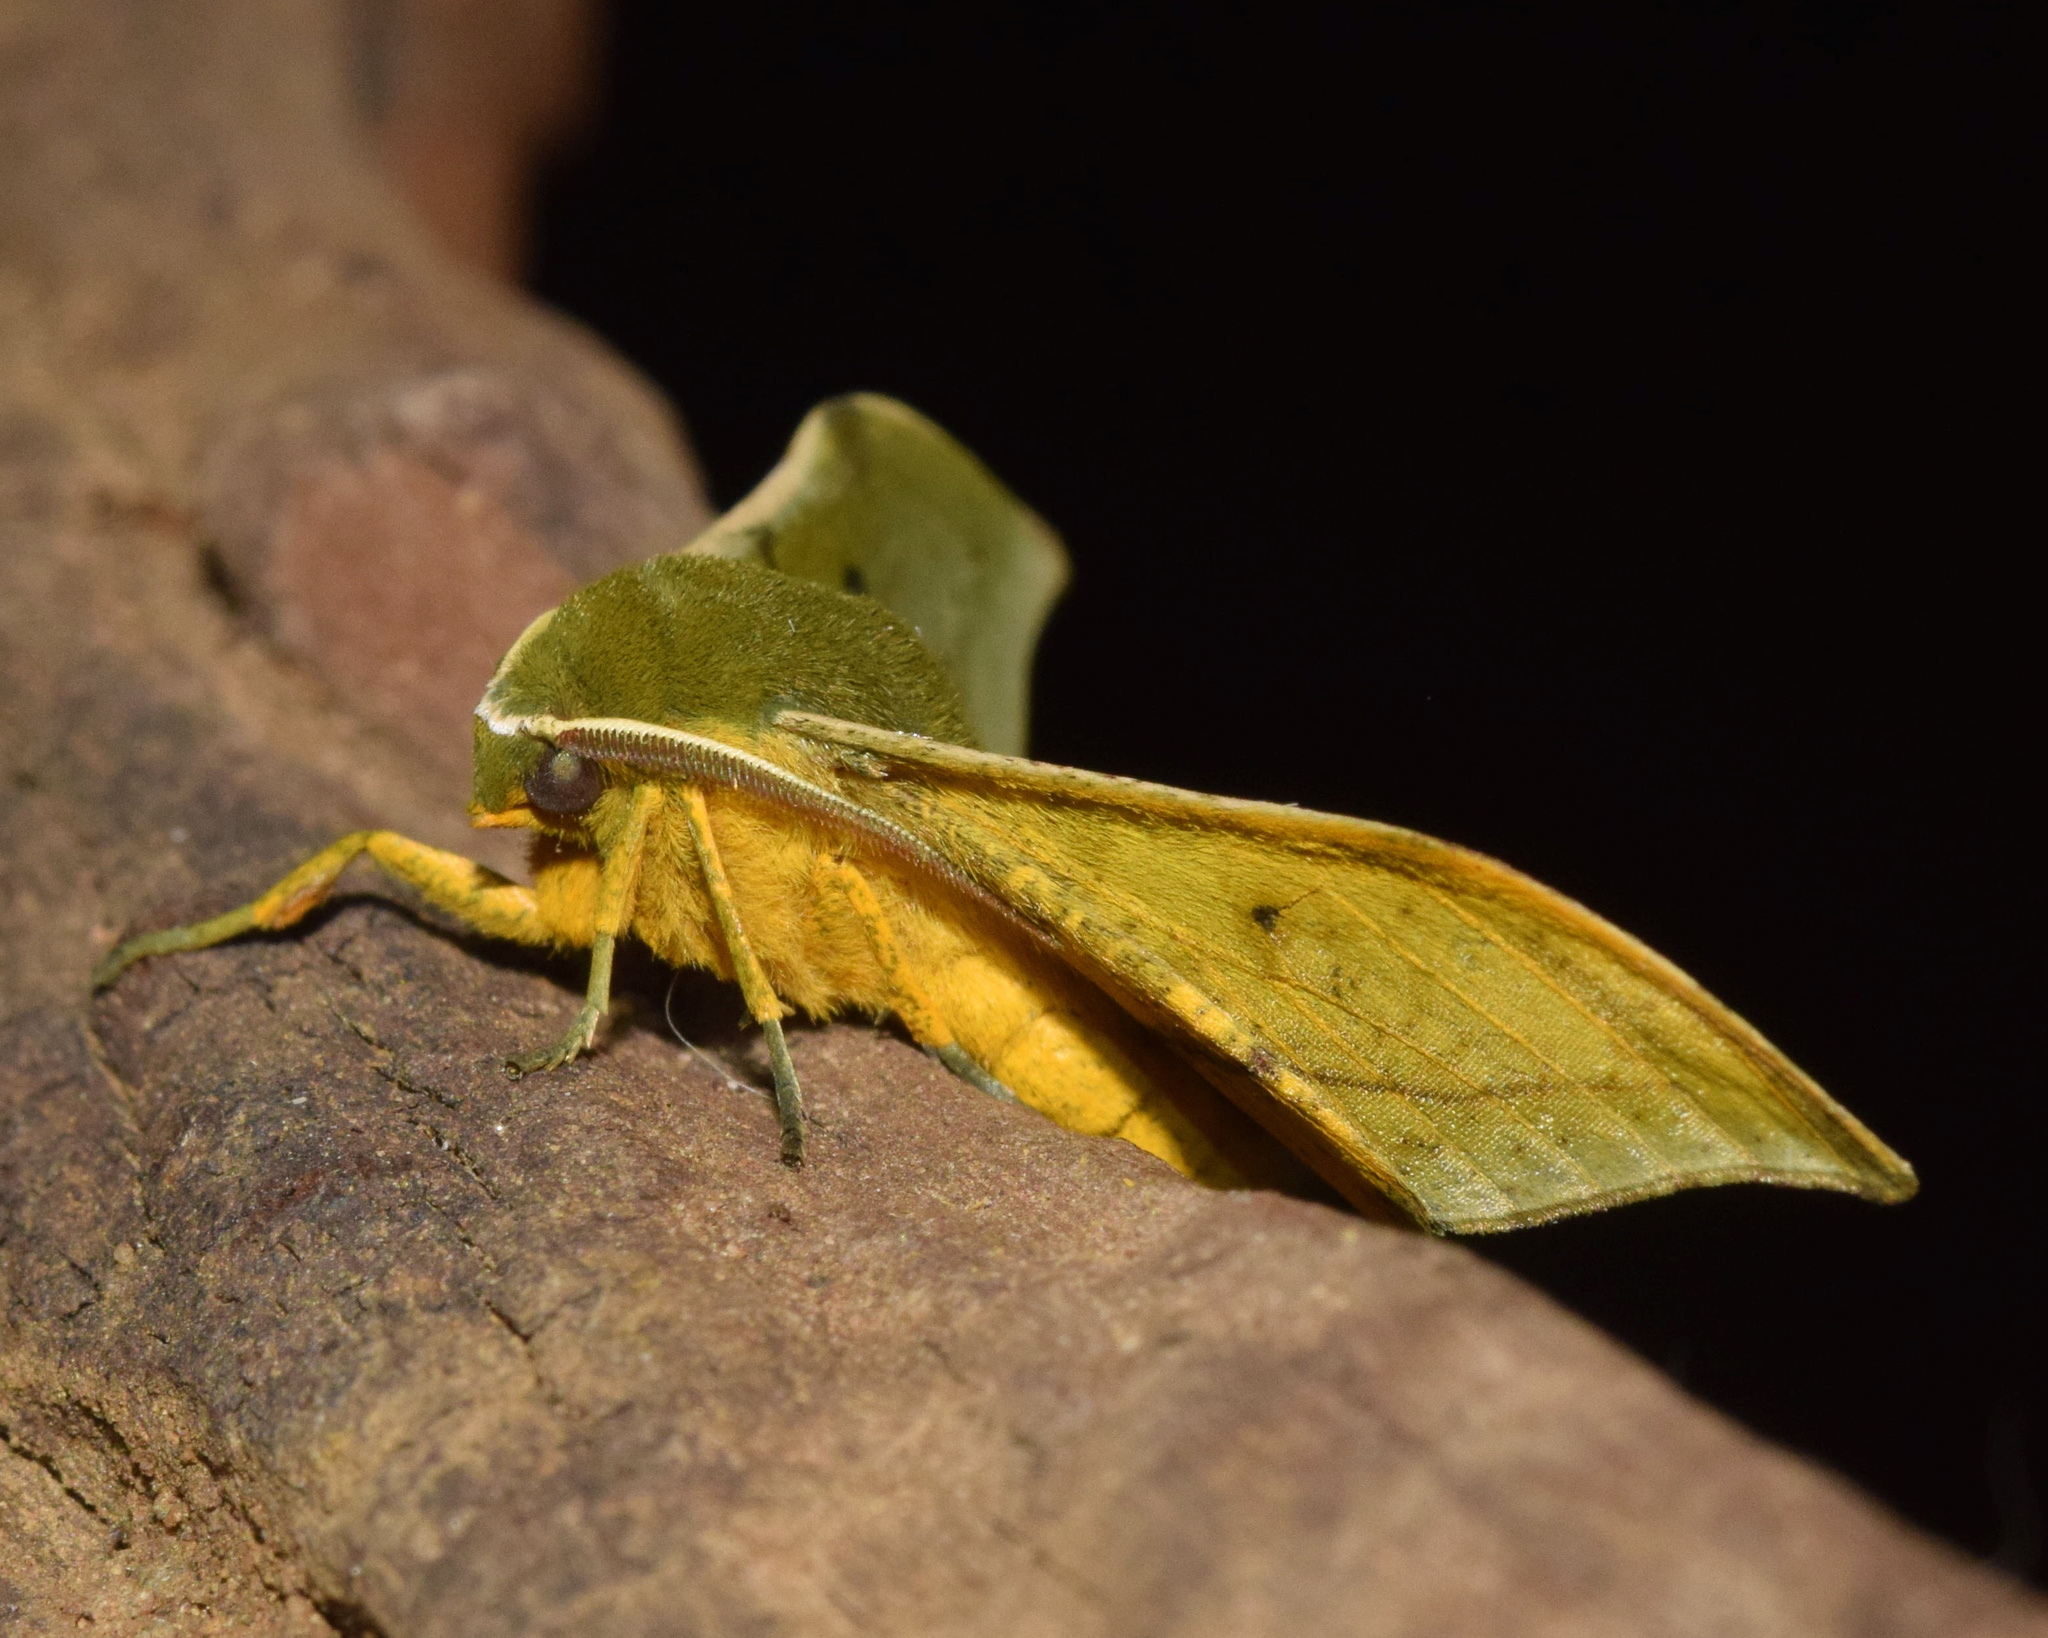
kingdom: Animalia
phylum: Arthropoda
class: Insecta
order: Lepidoptera
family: Geometridae
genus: Plegapteryx
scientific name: Plegapteryx anomalus
